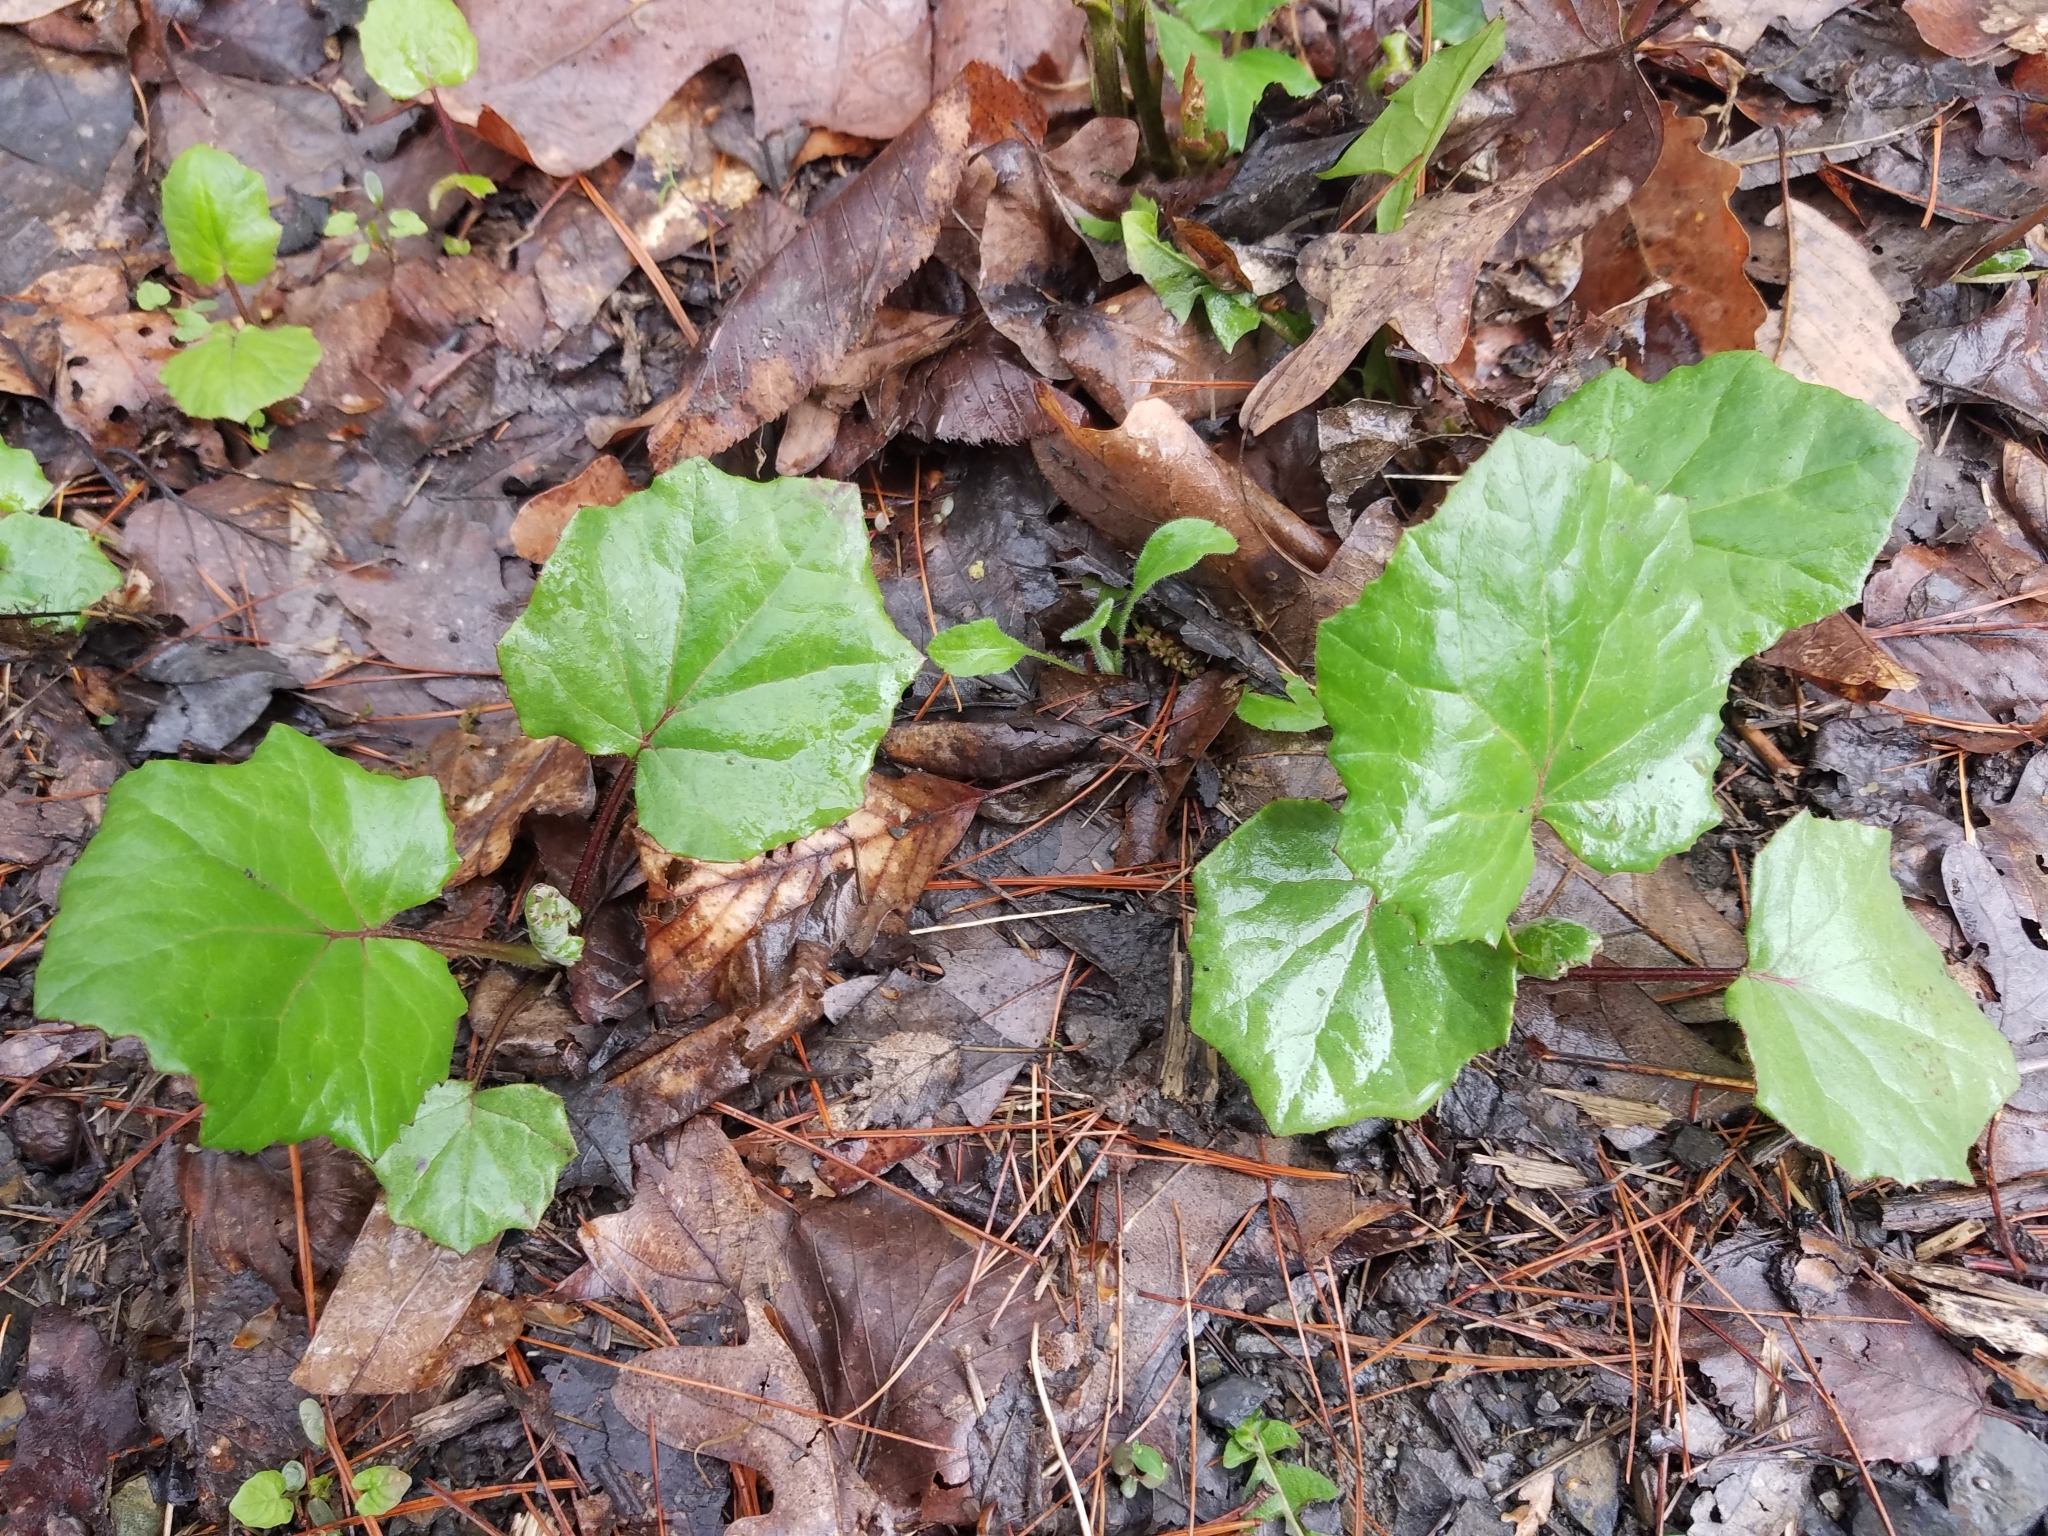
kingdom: Plantae
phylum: Tracheophyta
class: Magnoliopsida
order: Asterales
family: Asteraceae
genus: Tussilago
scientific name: Tussilago farfara
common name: Coltsfoot
